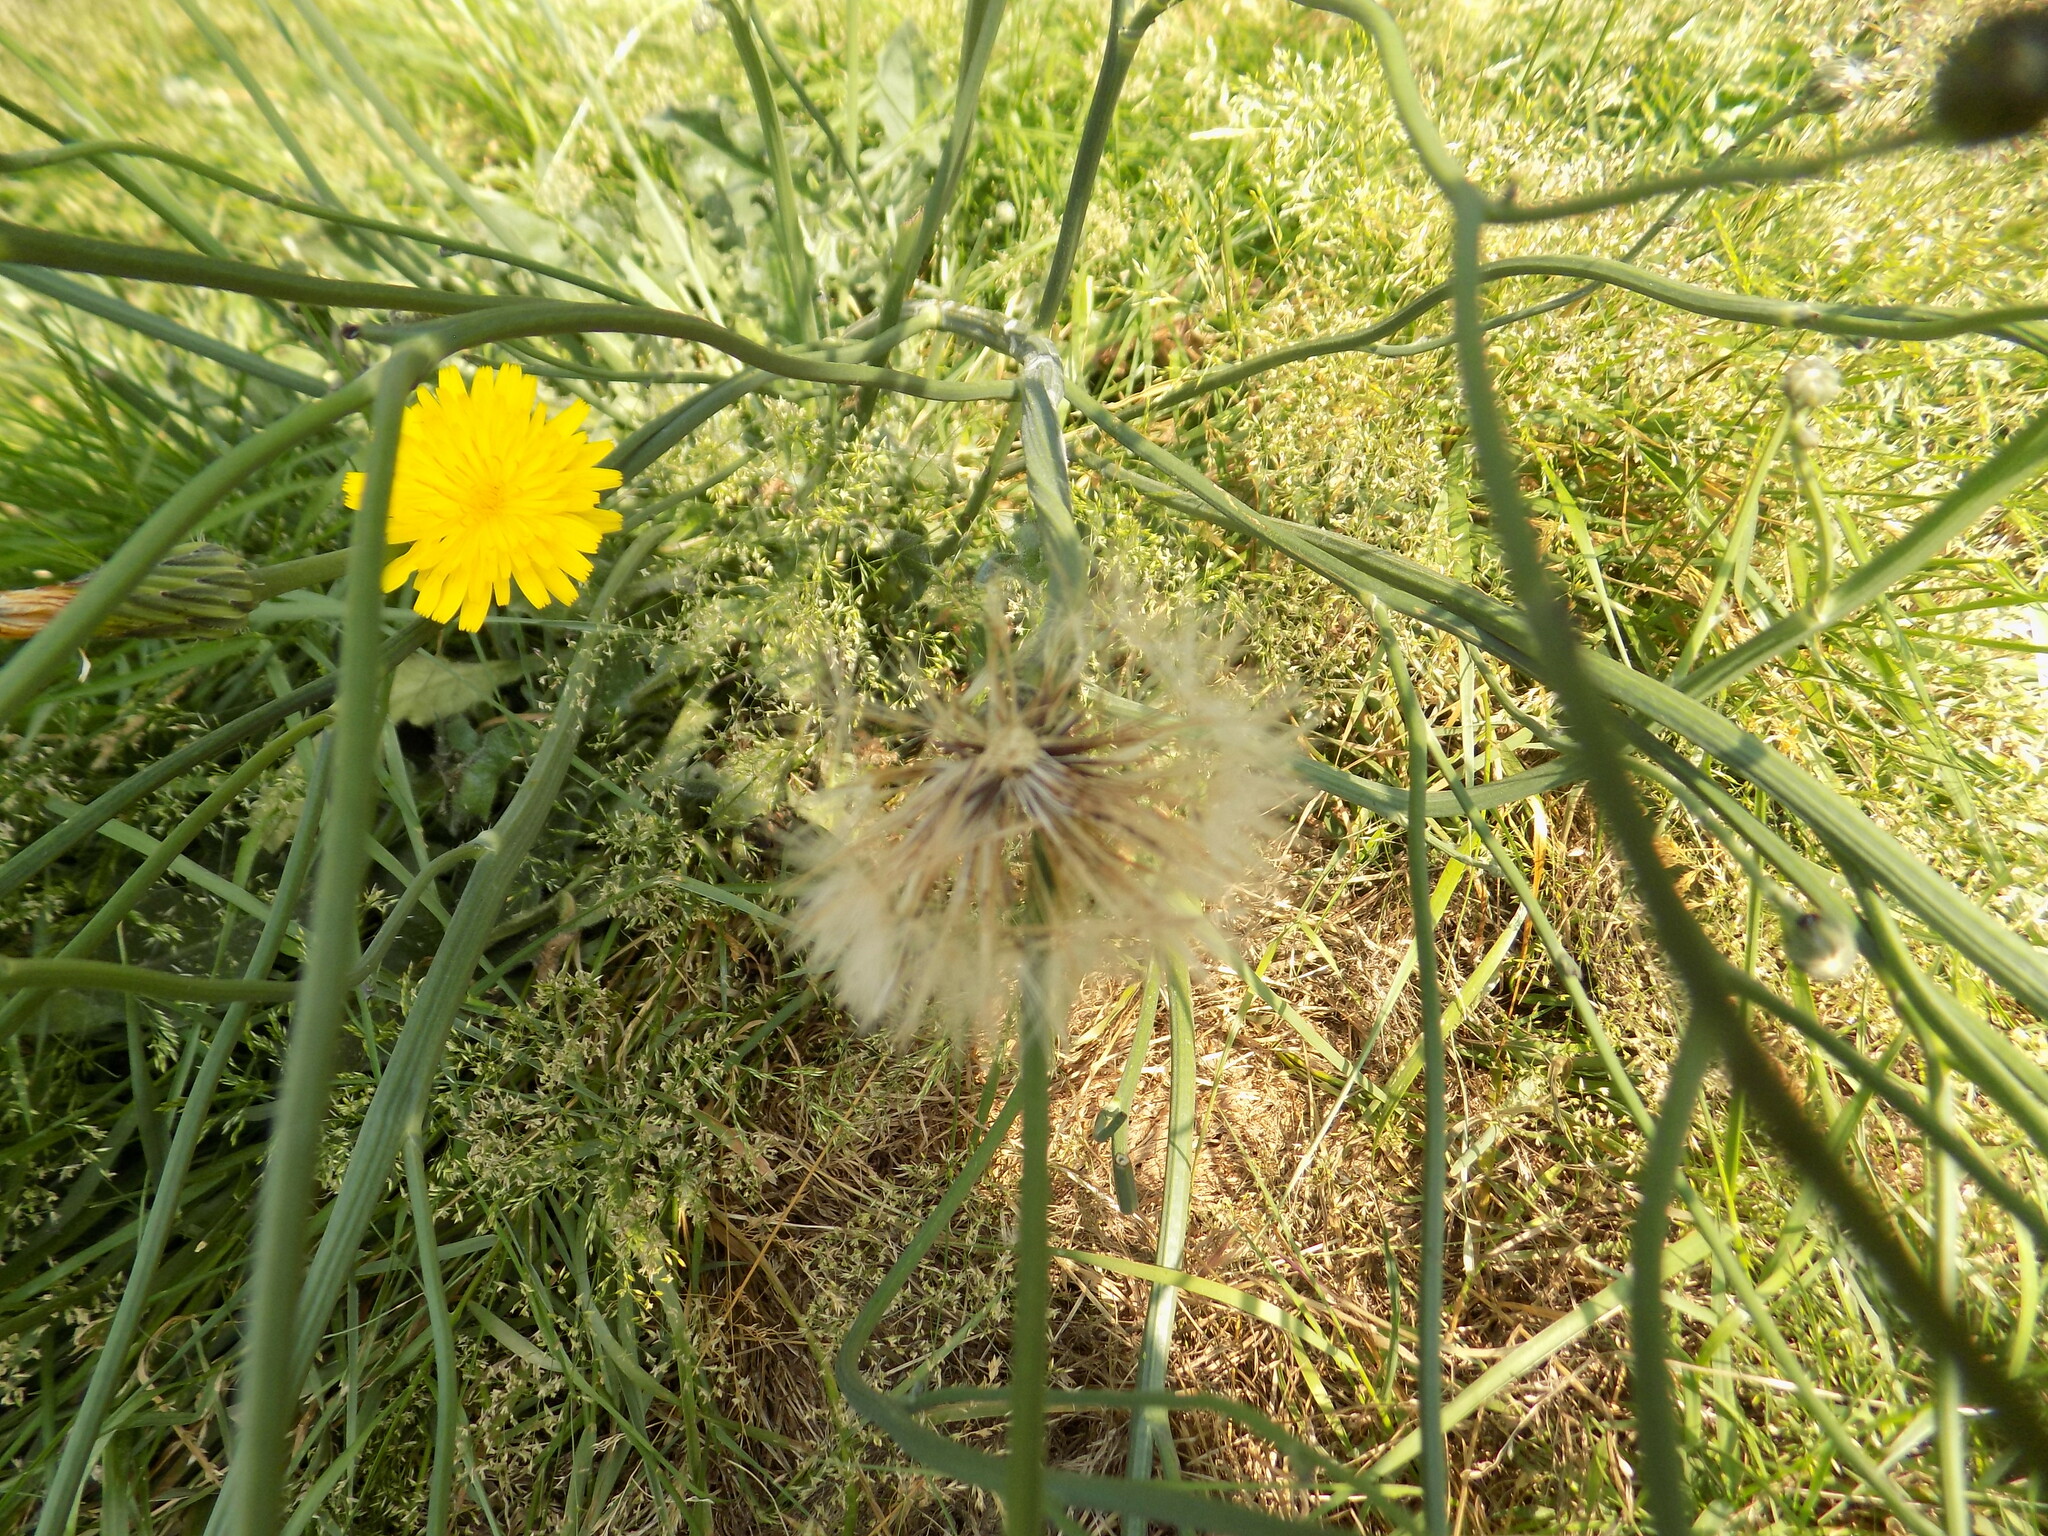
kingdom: Plantae
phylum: Tracheophyta
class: Magnoliopsida
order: Asterales
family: Asteraceae
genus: Hypochaeris
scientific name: Hypochaeris radicata
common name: Flatweed
